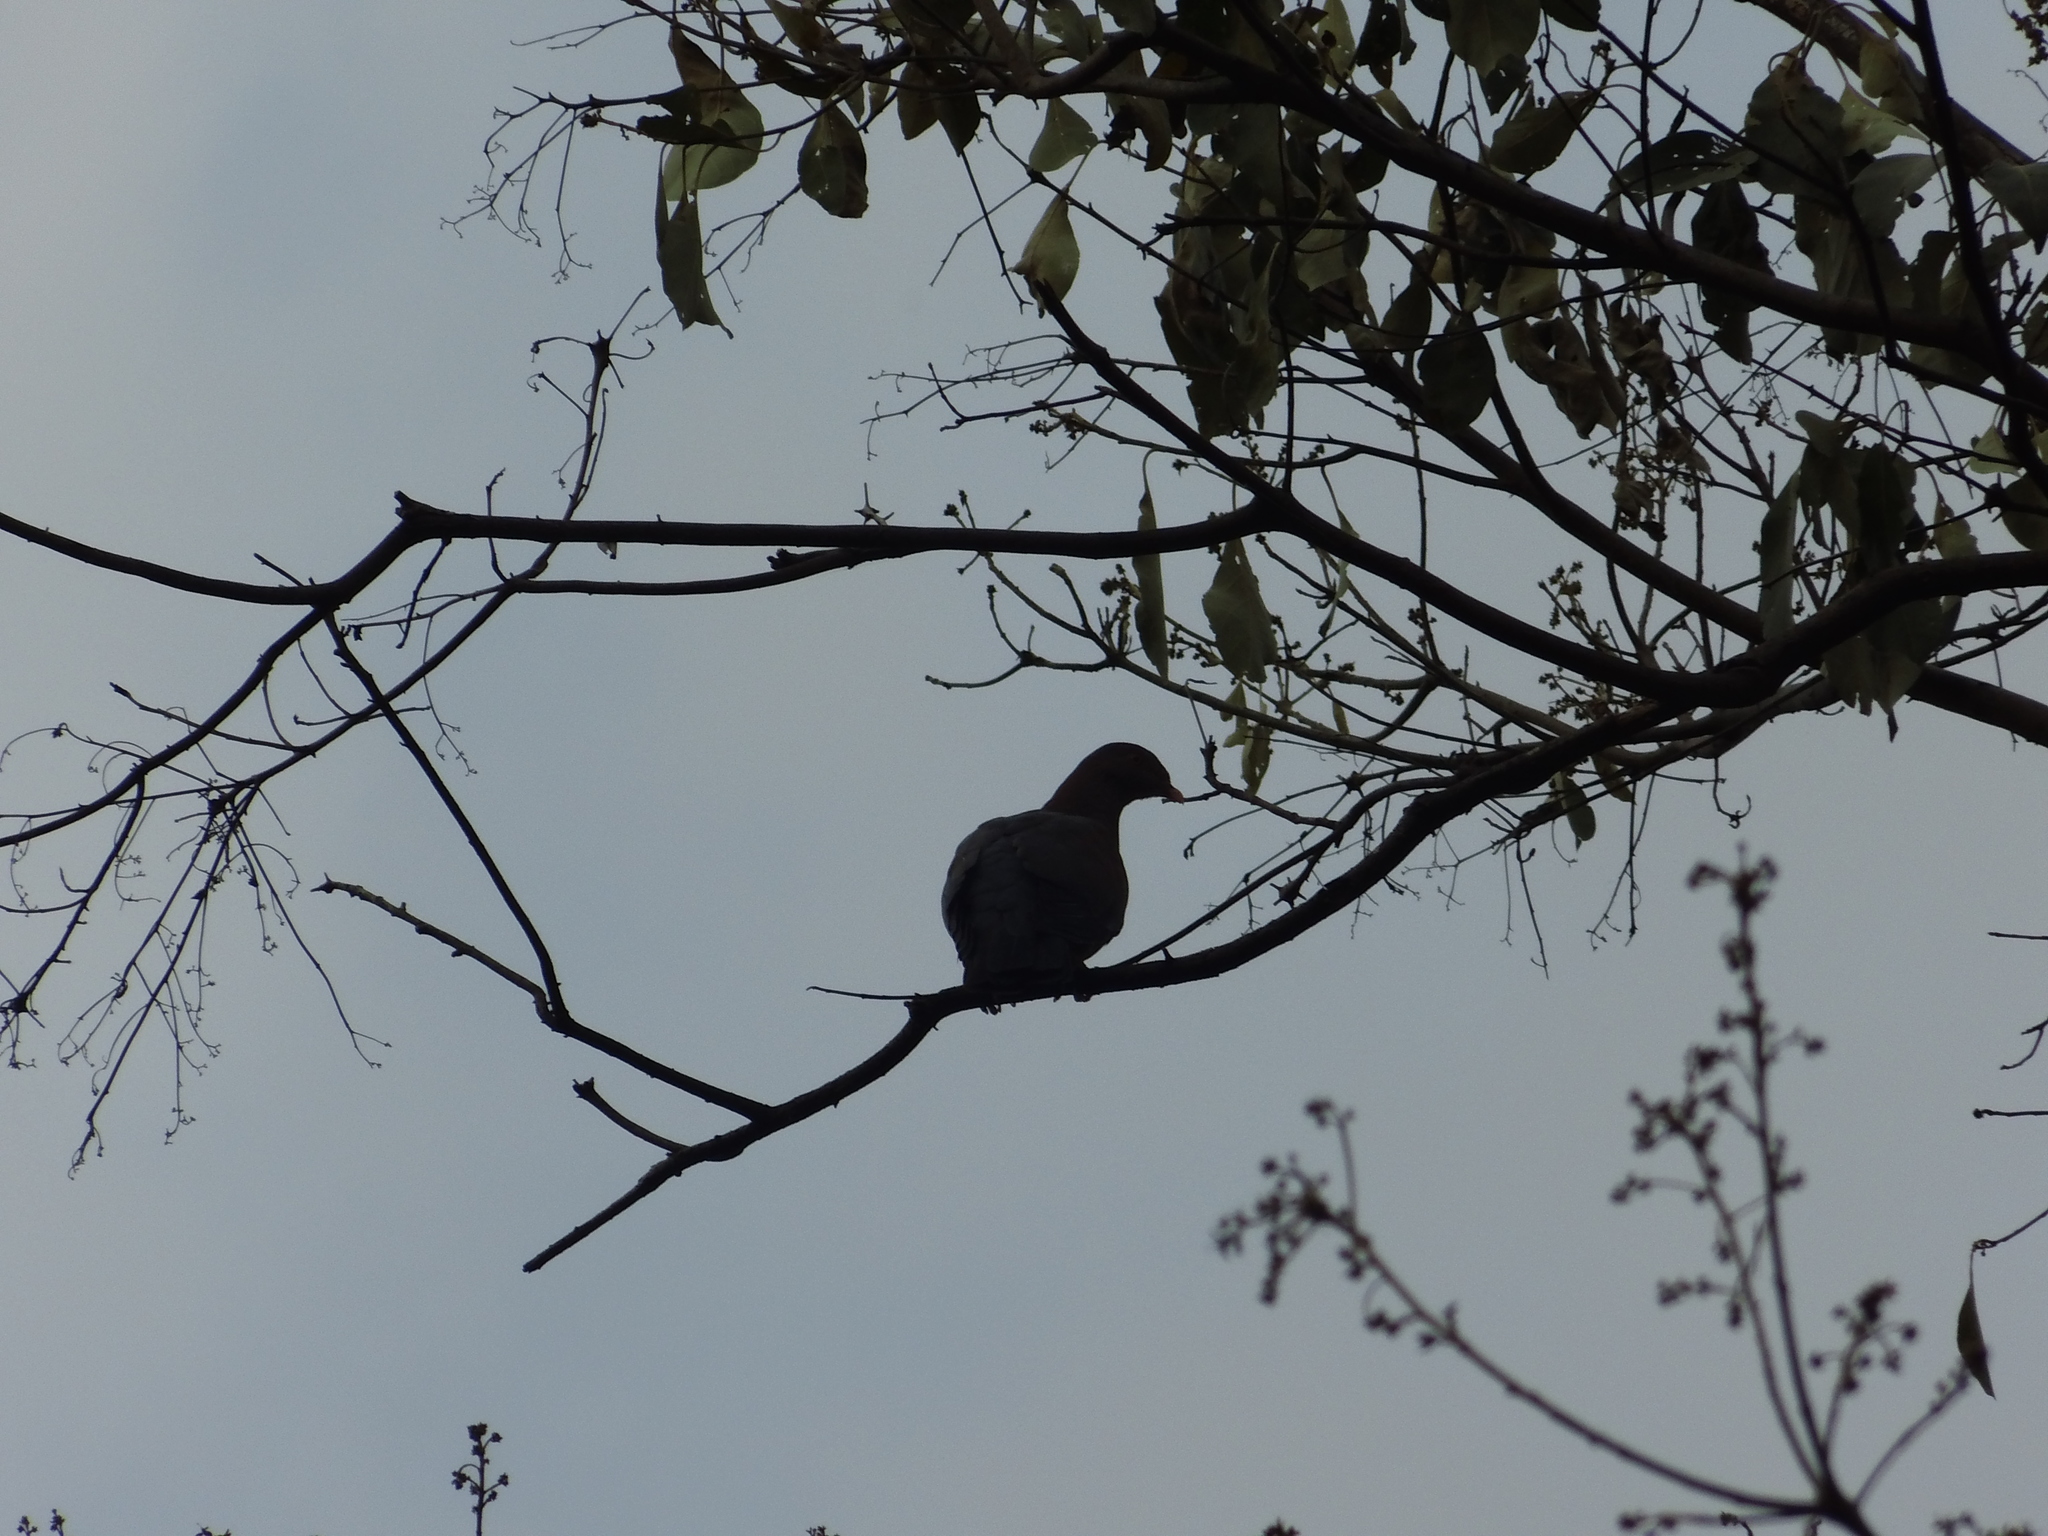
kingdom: Animalia
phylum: Chordata
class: Aves
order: Columbiformes
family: Columbidae
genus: Patagioenas
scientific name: Patagioenas flavirostris
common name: Red-billed pigeon
